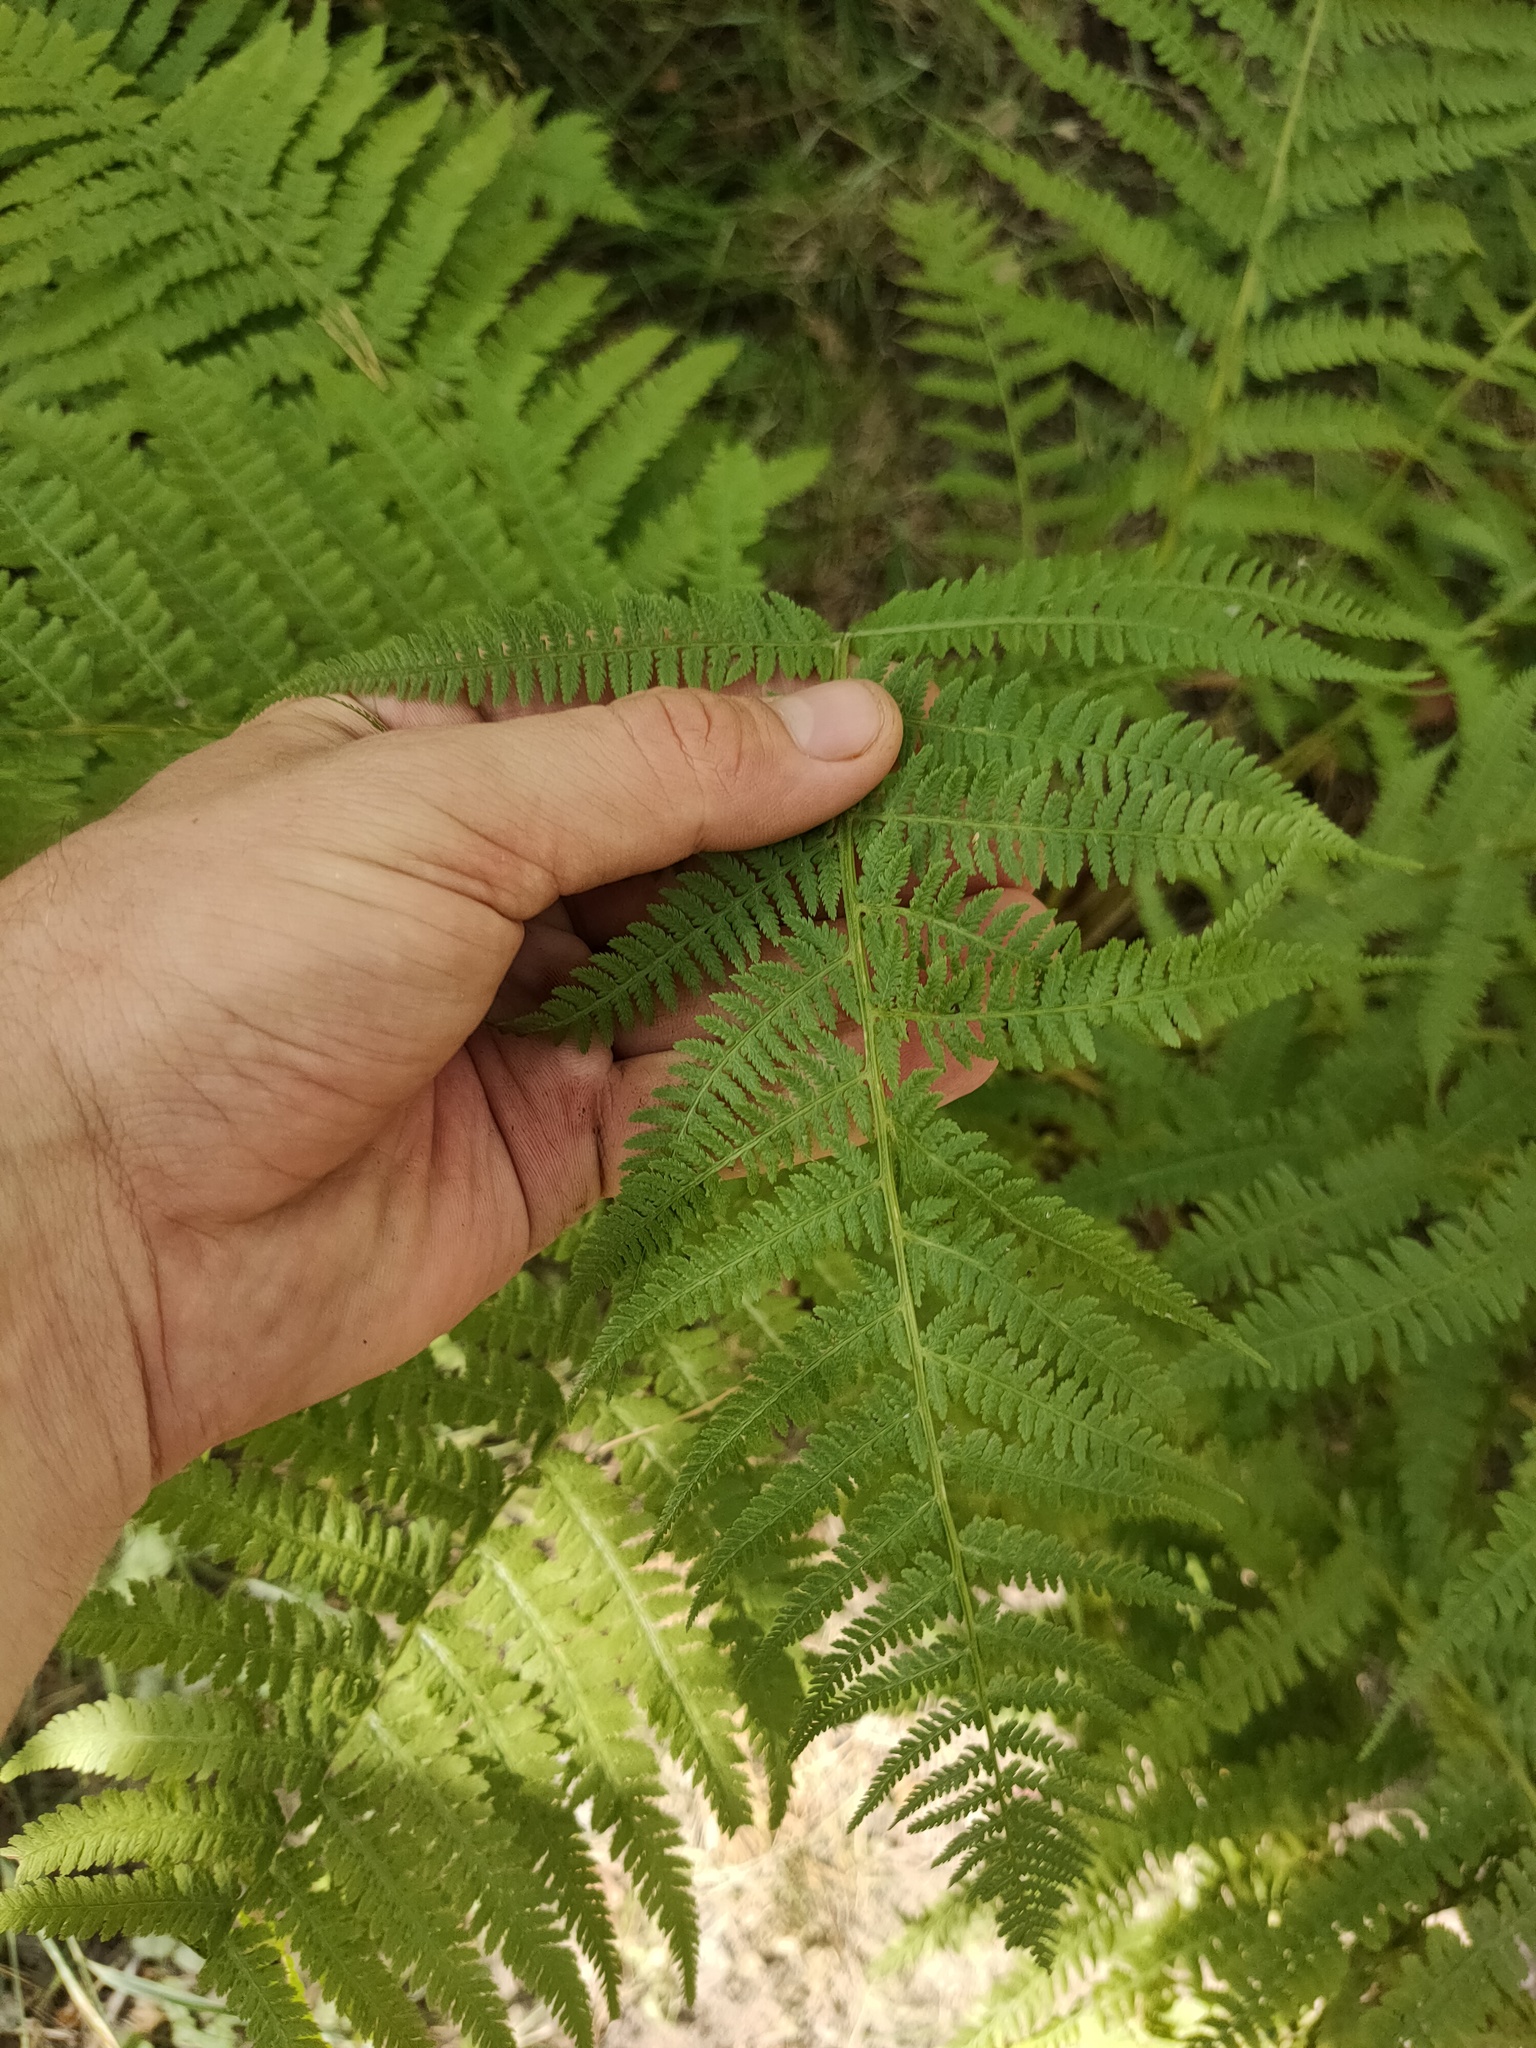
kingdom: Plantae
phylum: Tracheophyta
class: Polypodiopsida
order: Polypodiales
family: Athyriaceae
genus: Athyrium
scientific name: Athyrium filix-femina
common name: Lady fern
